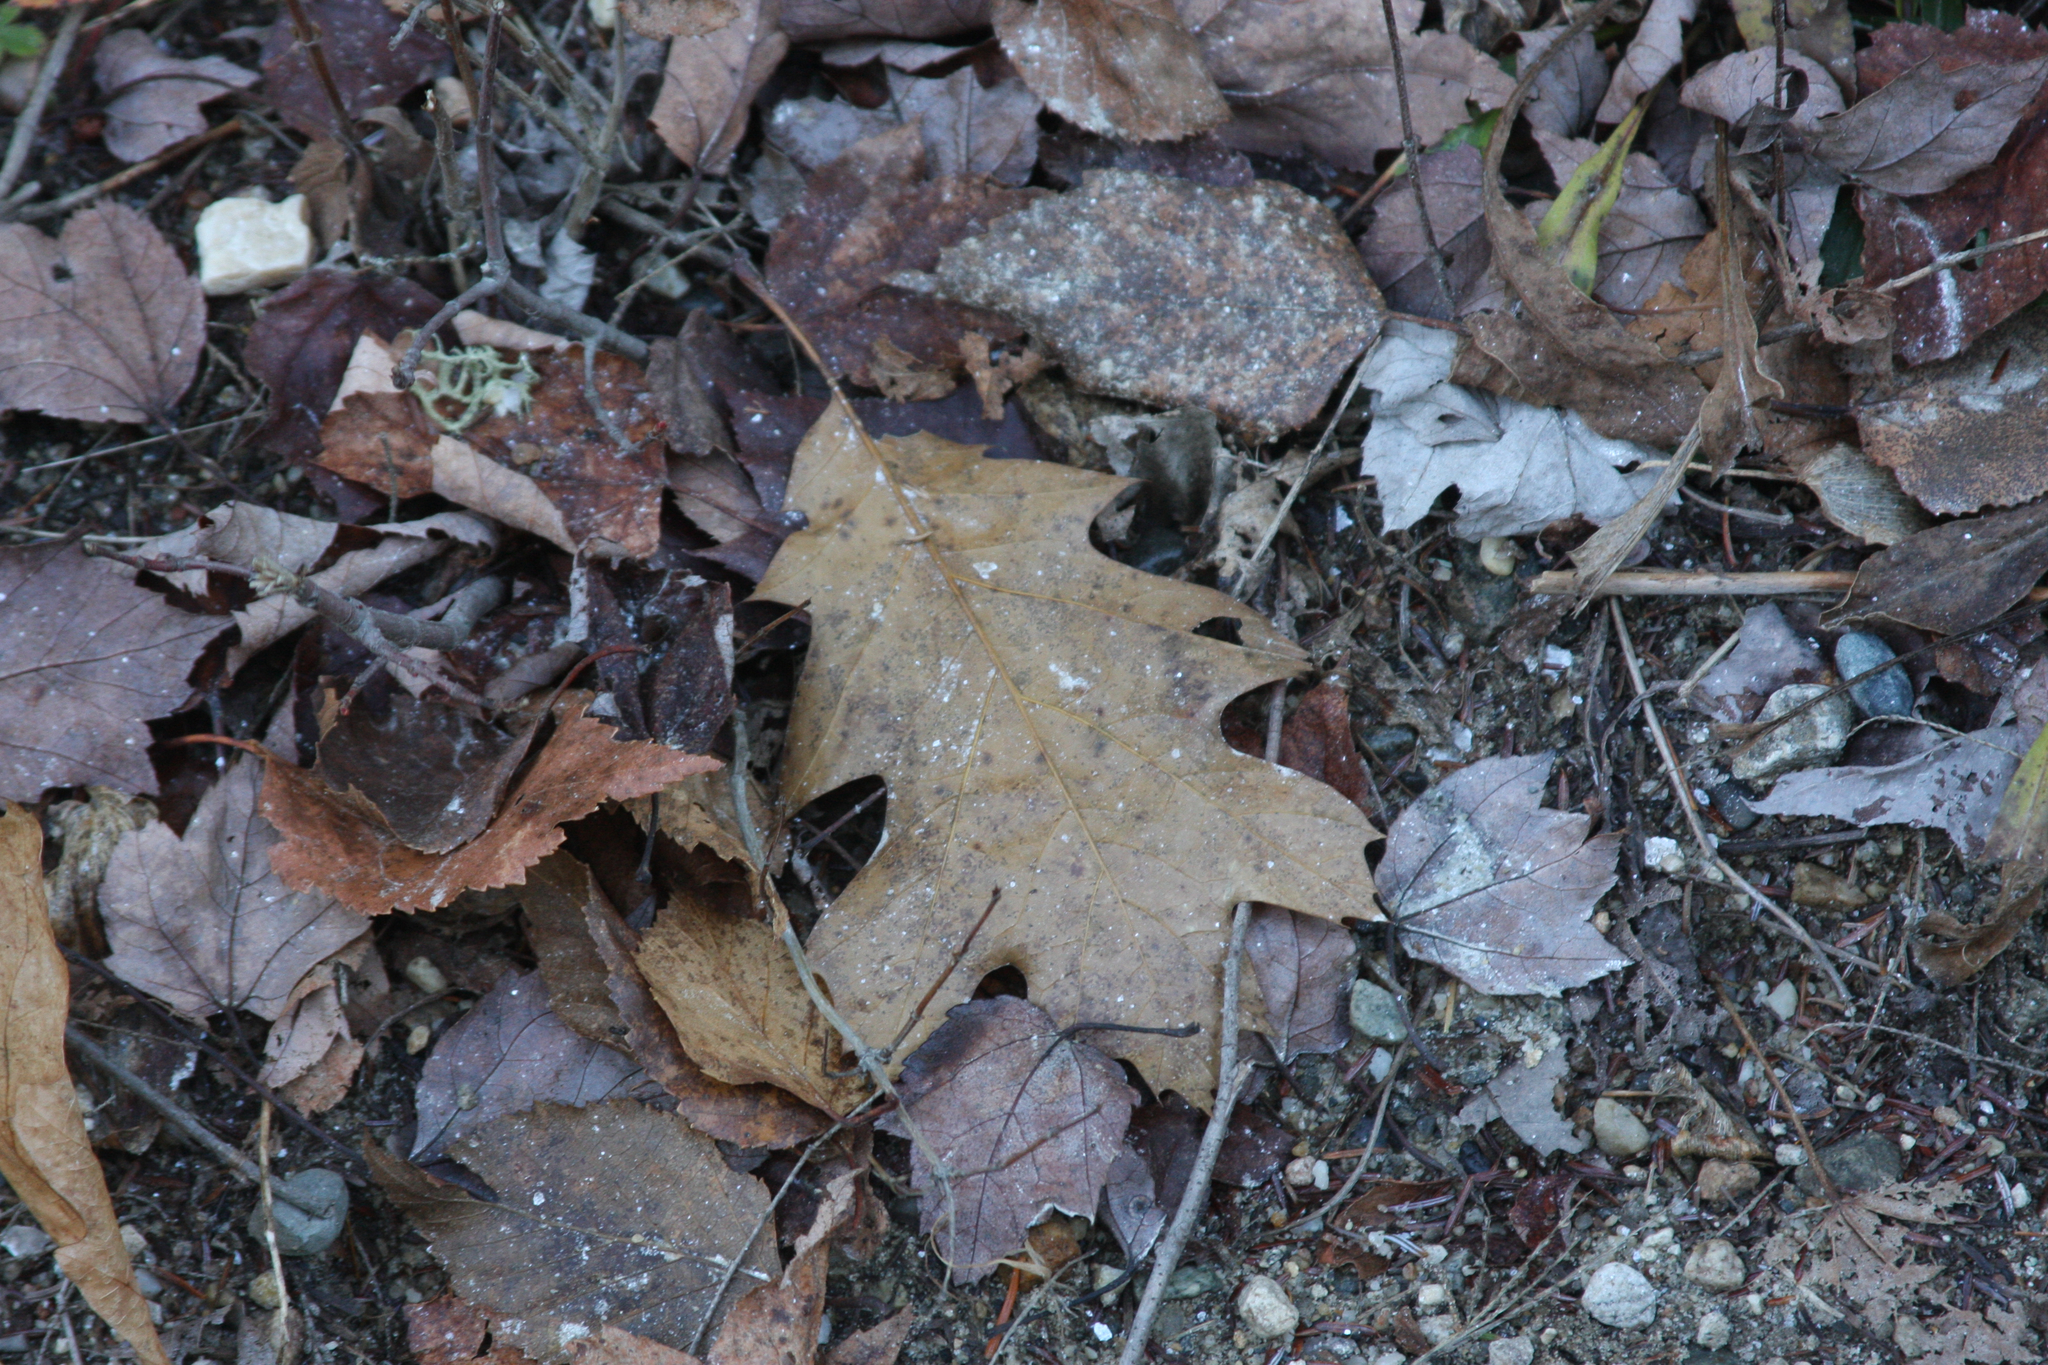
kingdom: Plantae
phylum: Tracheophyta
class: Magnoliopsida
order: Fagales
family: Fagaceae
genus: Quercus
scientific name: Quercus rubra
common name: Red oak
